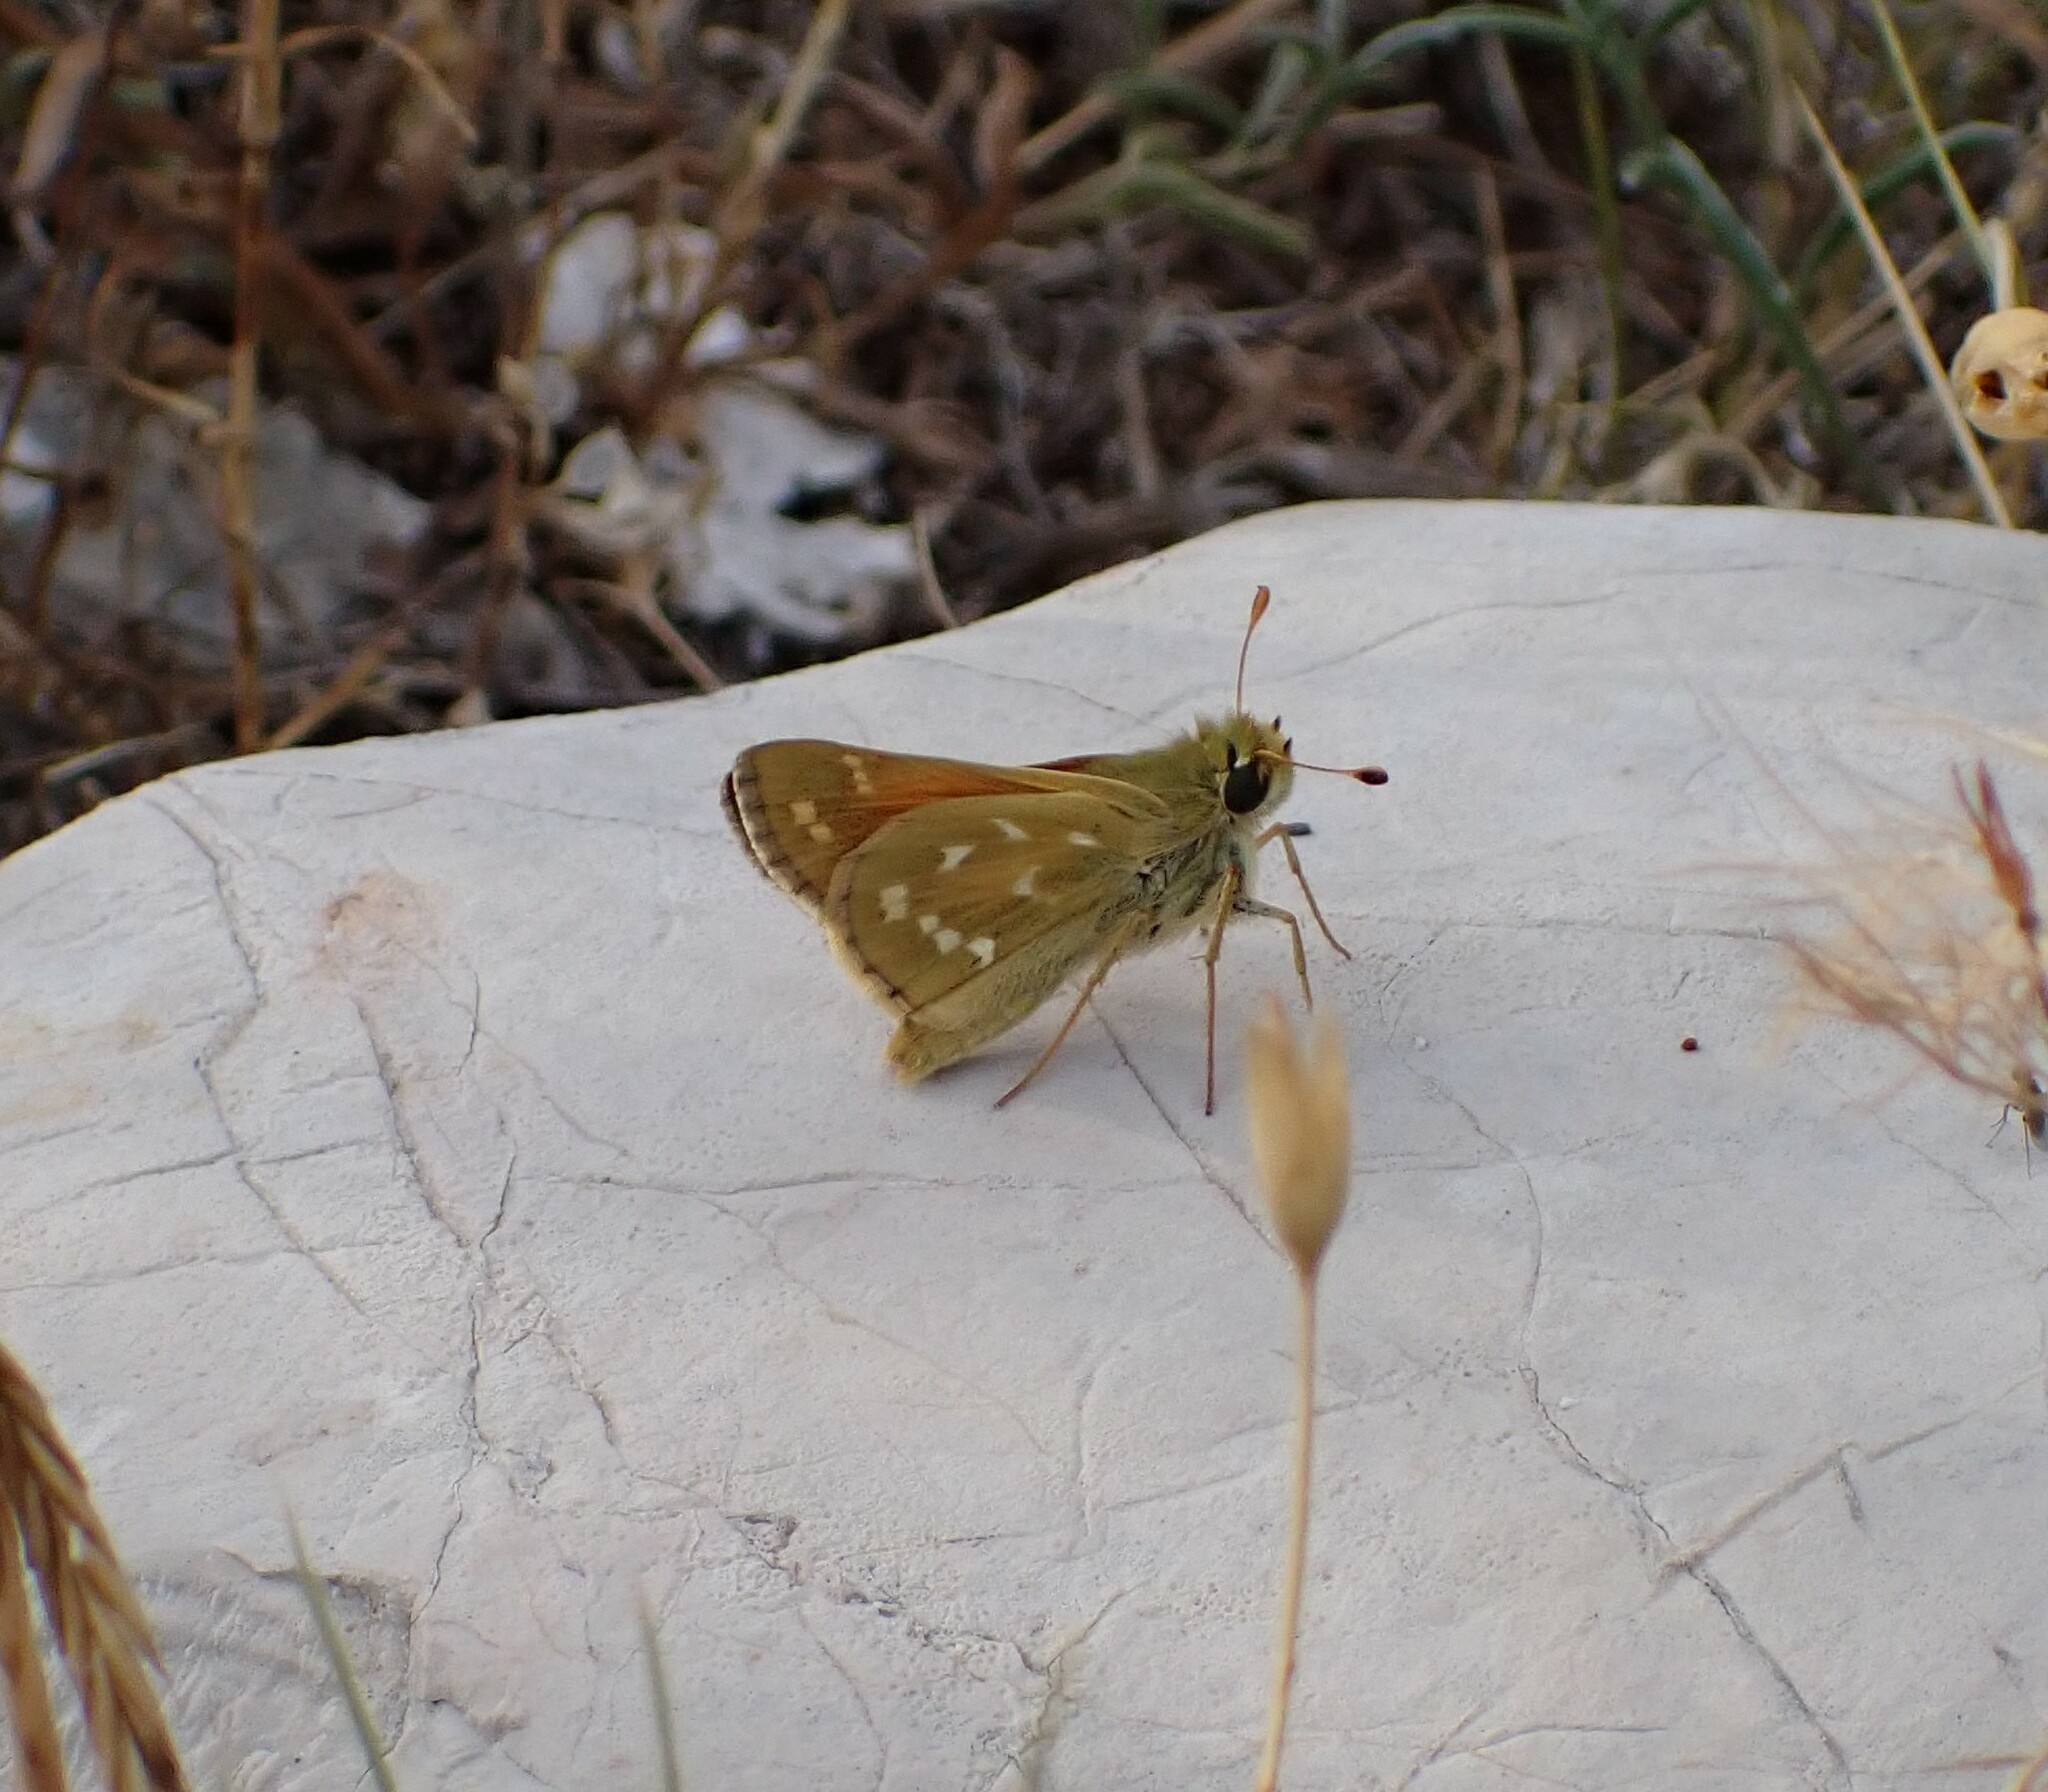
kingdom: Animalia
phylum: Arthropoda
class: Insecta
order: Lepidoptera
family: Hesperiidae
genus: Hesperia
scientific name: Hesperia comma
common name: Common branded skipper
